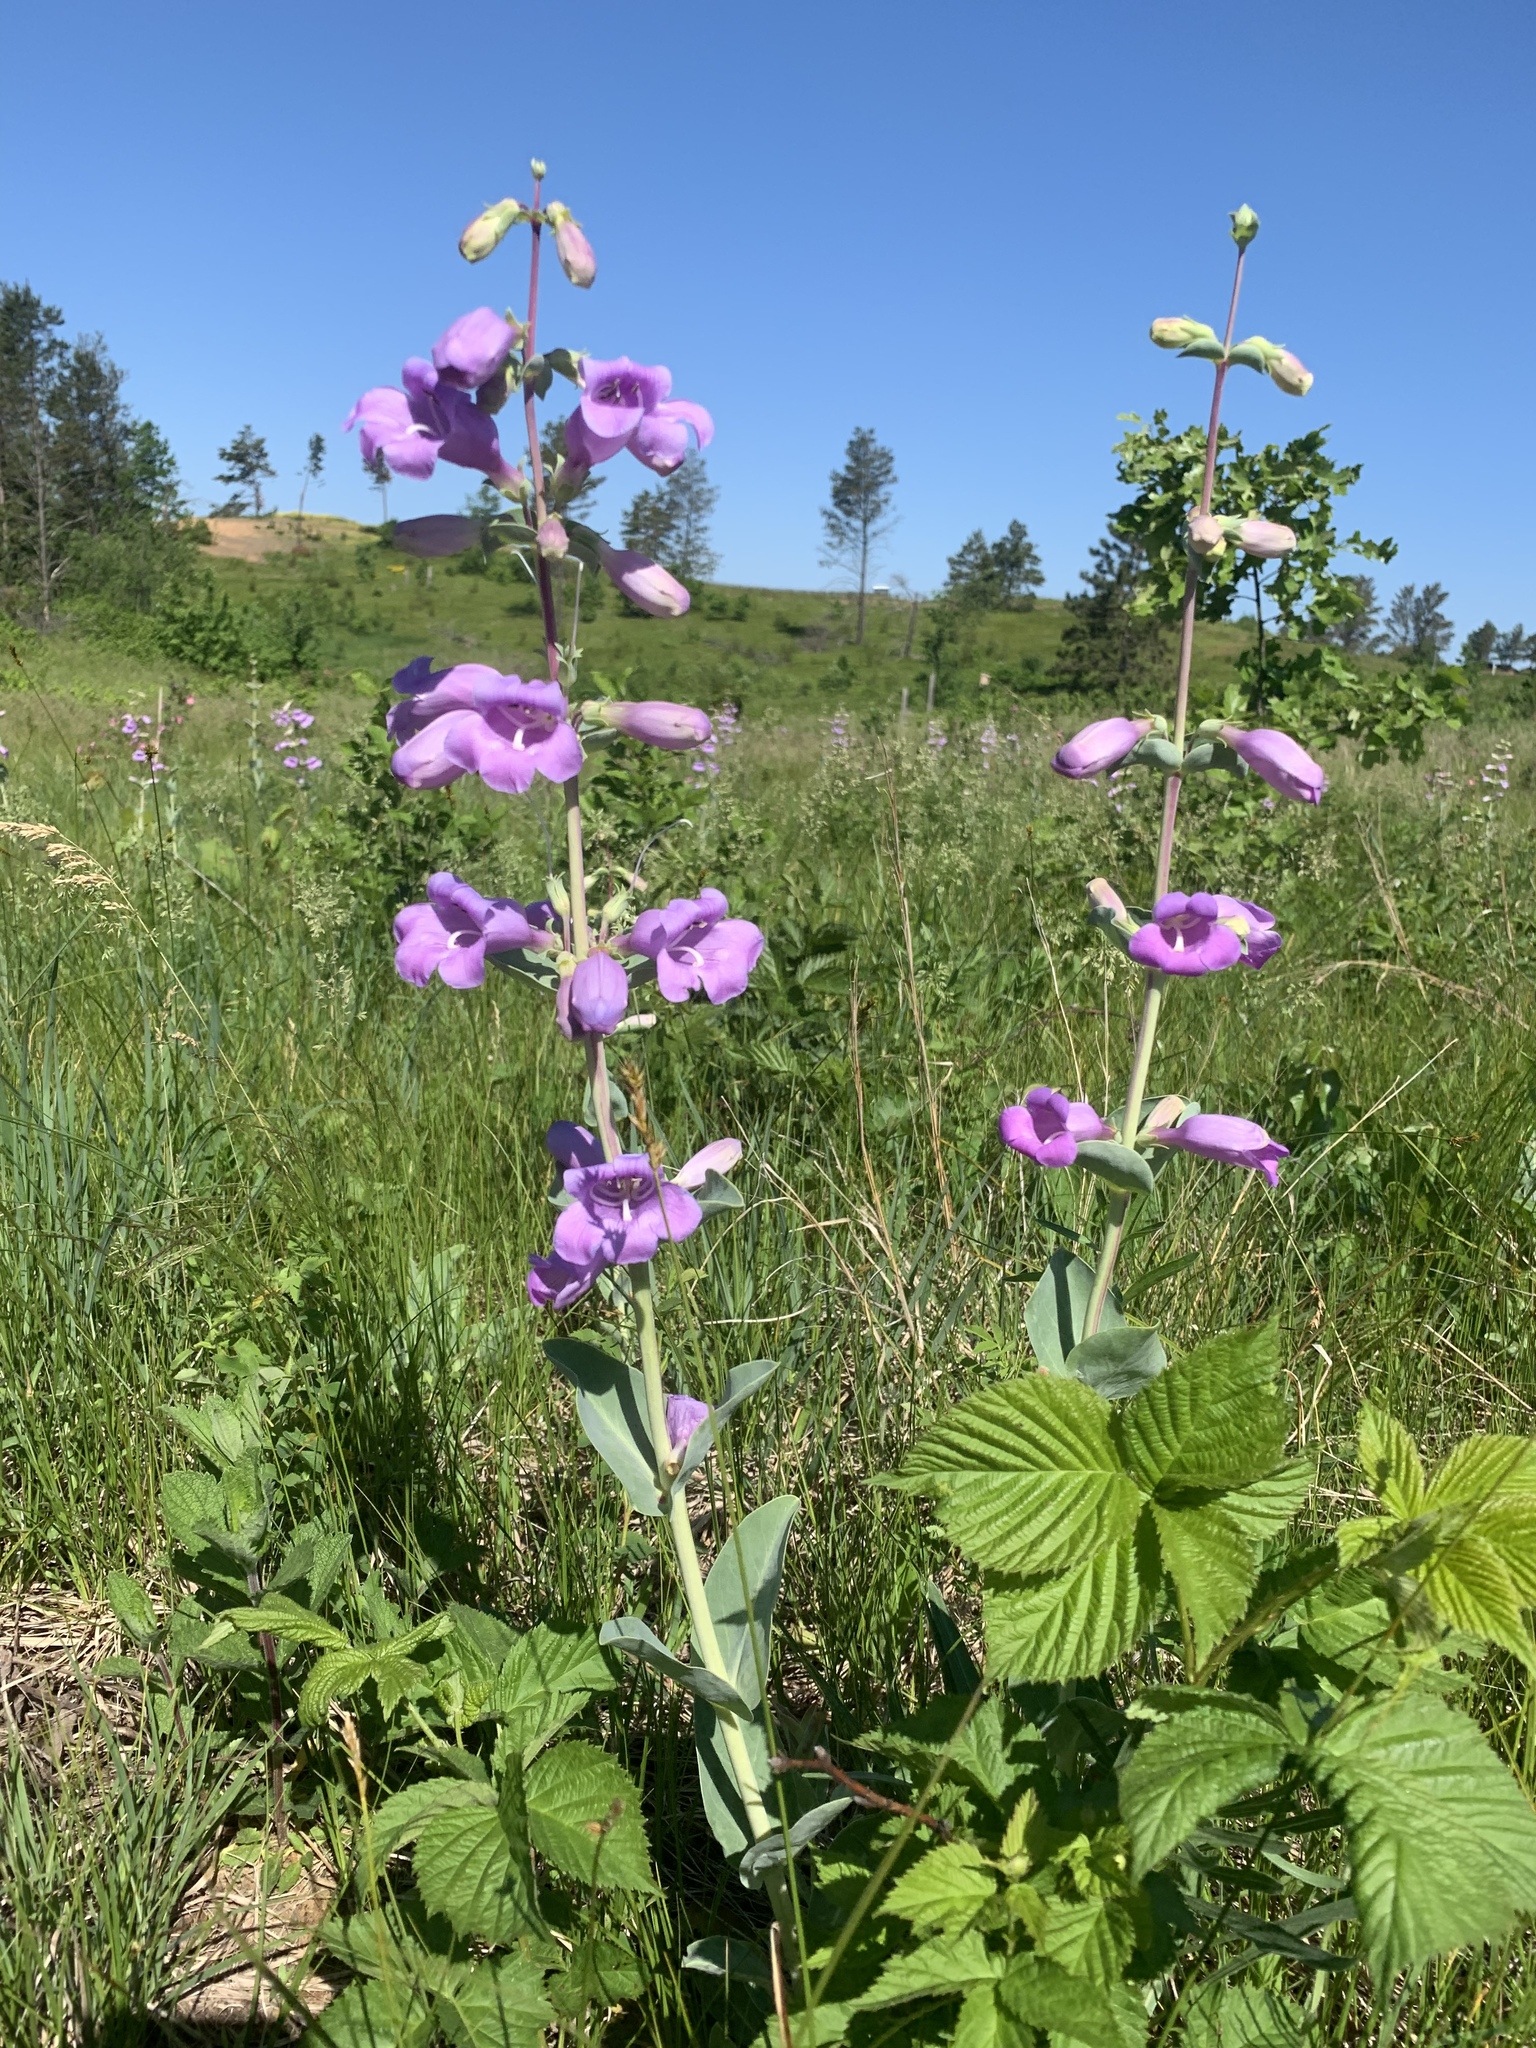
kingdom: Plantae
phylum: Tracheophyta
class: Magnoliopsida
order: Lamiales
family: Plantaginaceae
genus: Penstemon
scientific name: Penstemon
